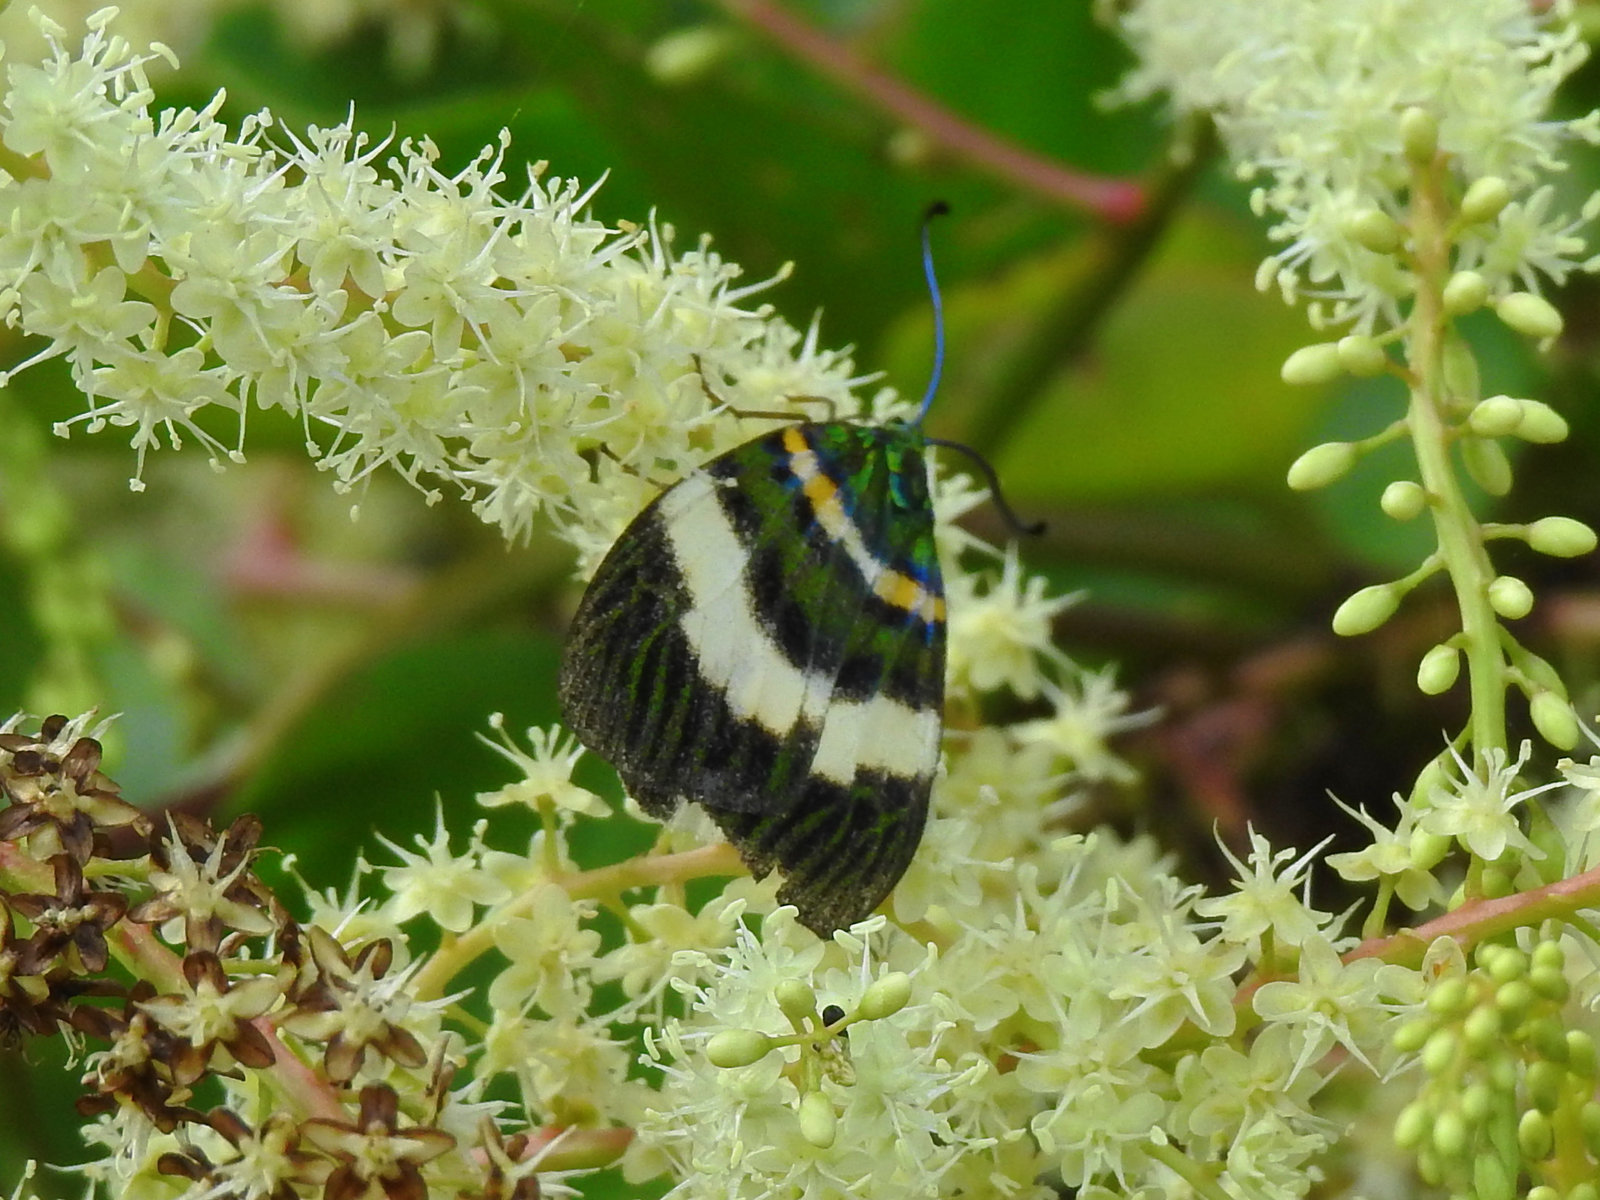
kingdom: Animalia
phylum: Arthropoda
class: Insecta
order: Lepidoptera
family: Zygaenidae
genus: Chalcophaedra
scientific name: Chalcophaedra zuleika
